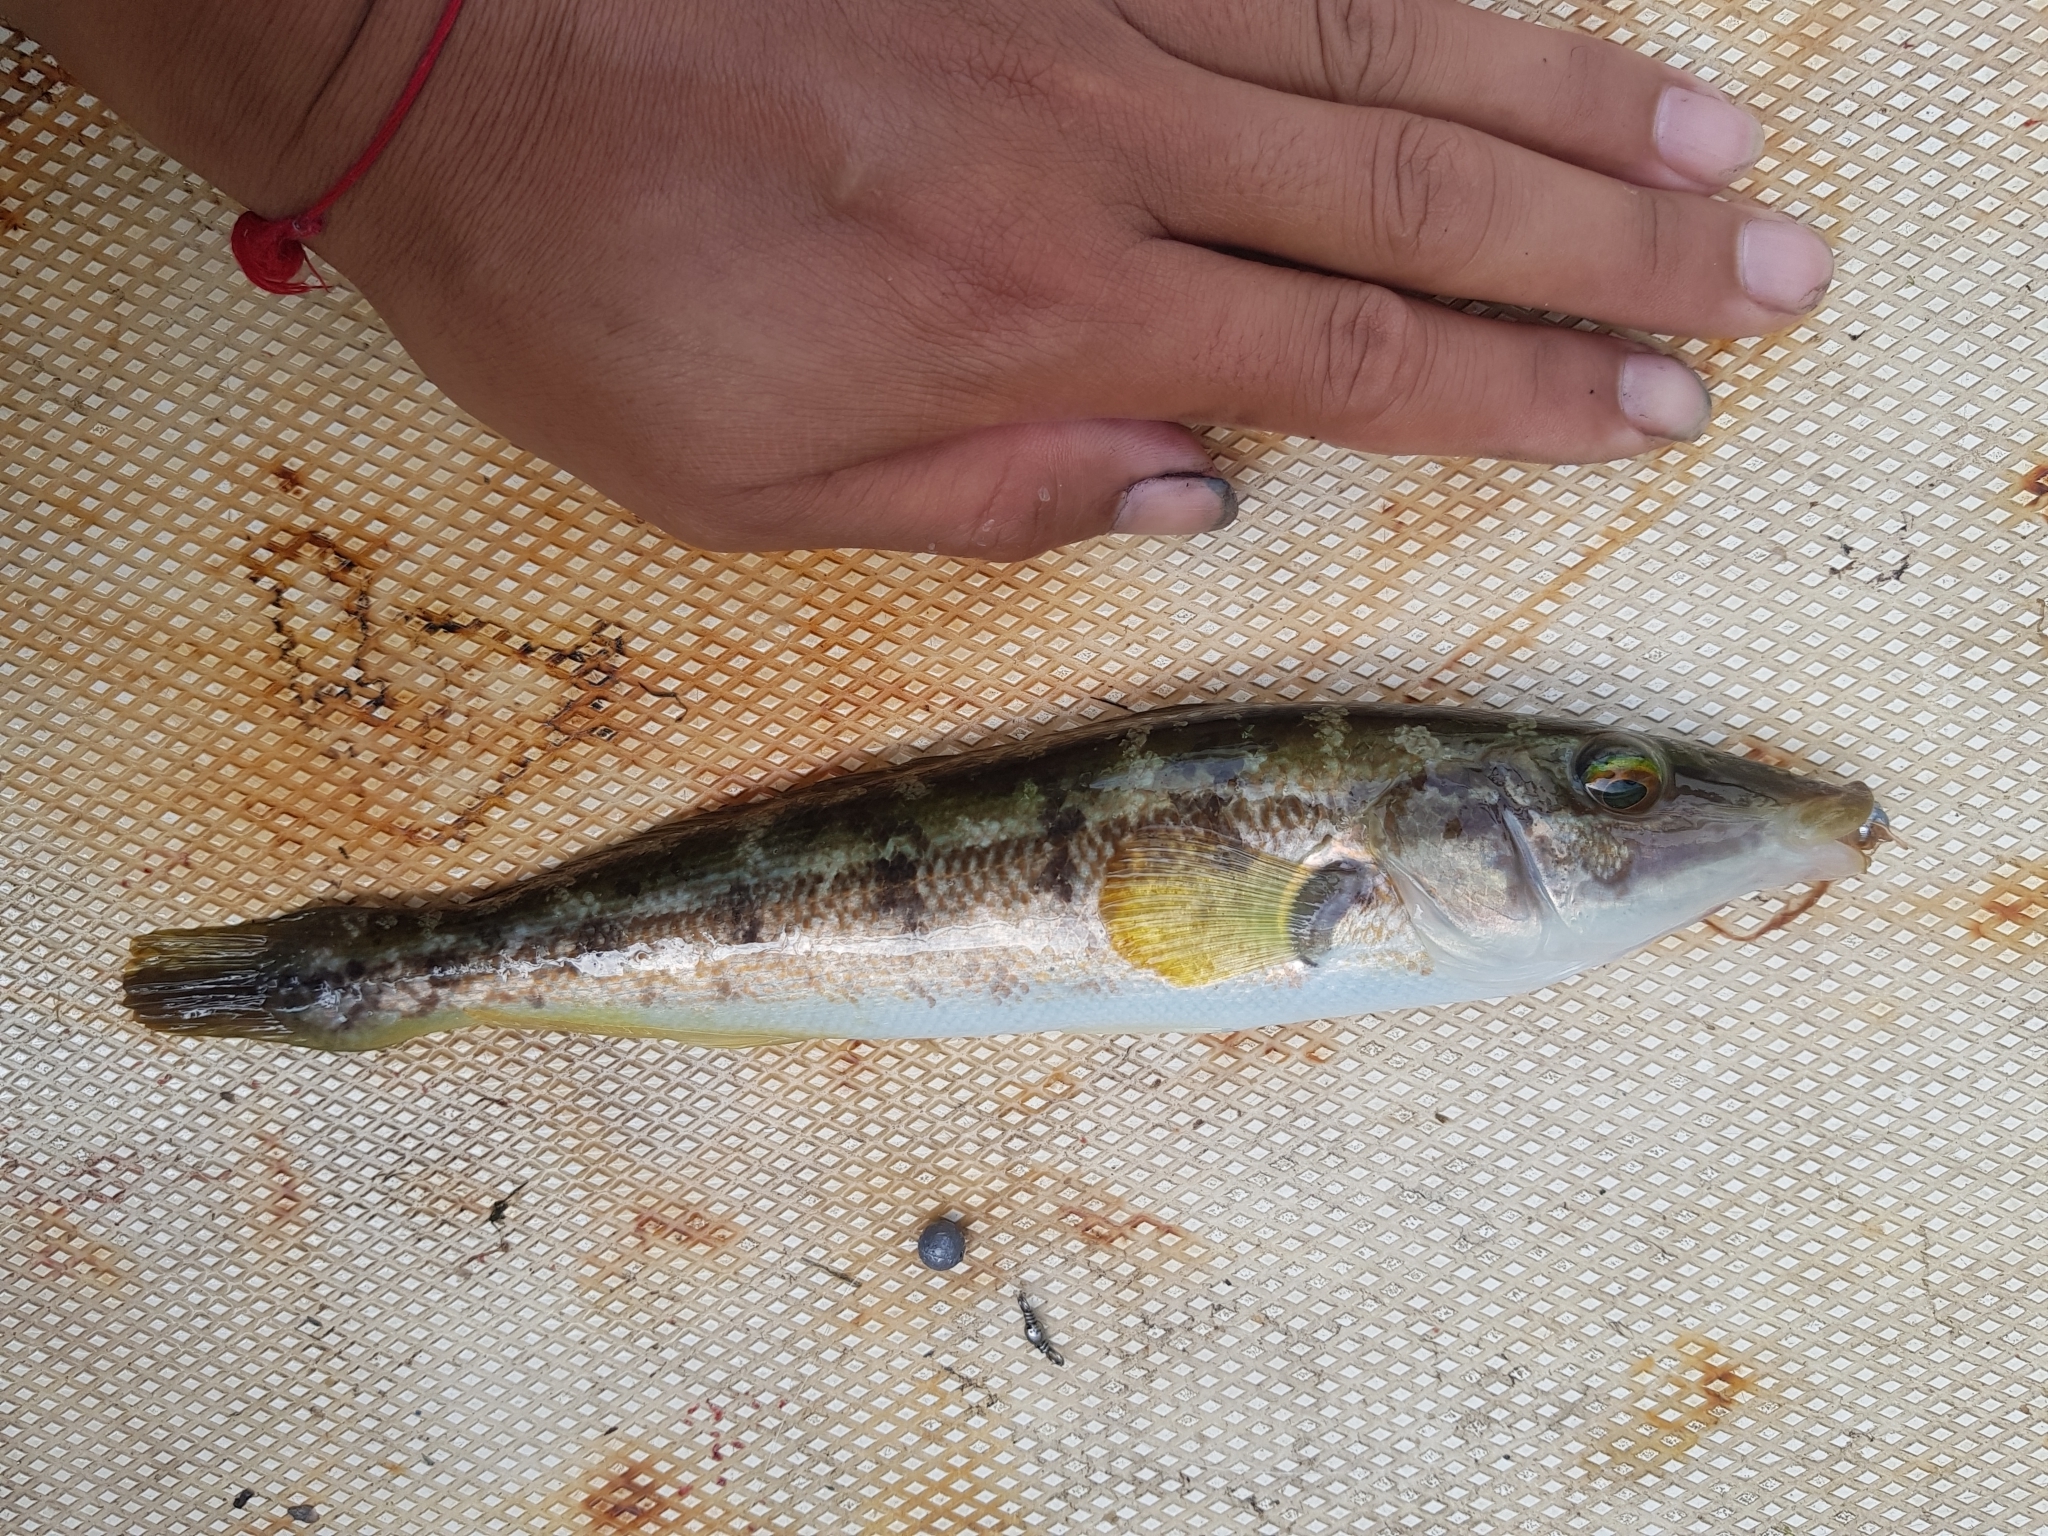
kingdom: Animalia
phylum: Chordata
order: Perciformes
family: Odacidae
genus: Haletta
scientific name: Haletta semifasciata
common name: Blue rock whiting
